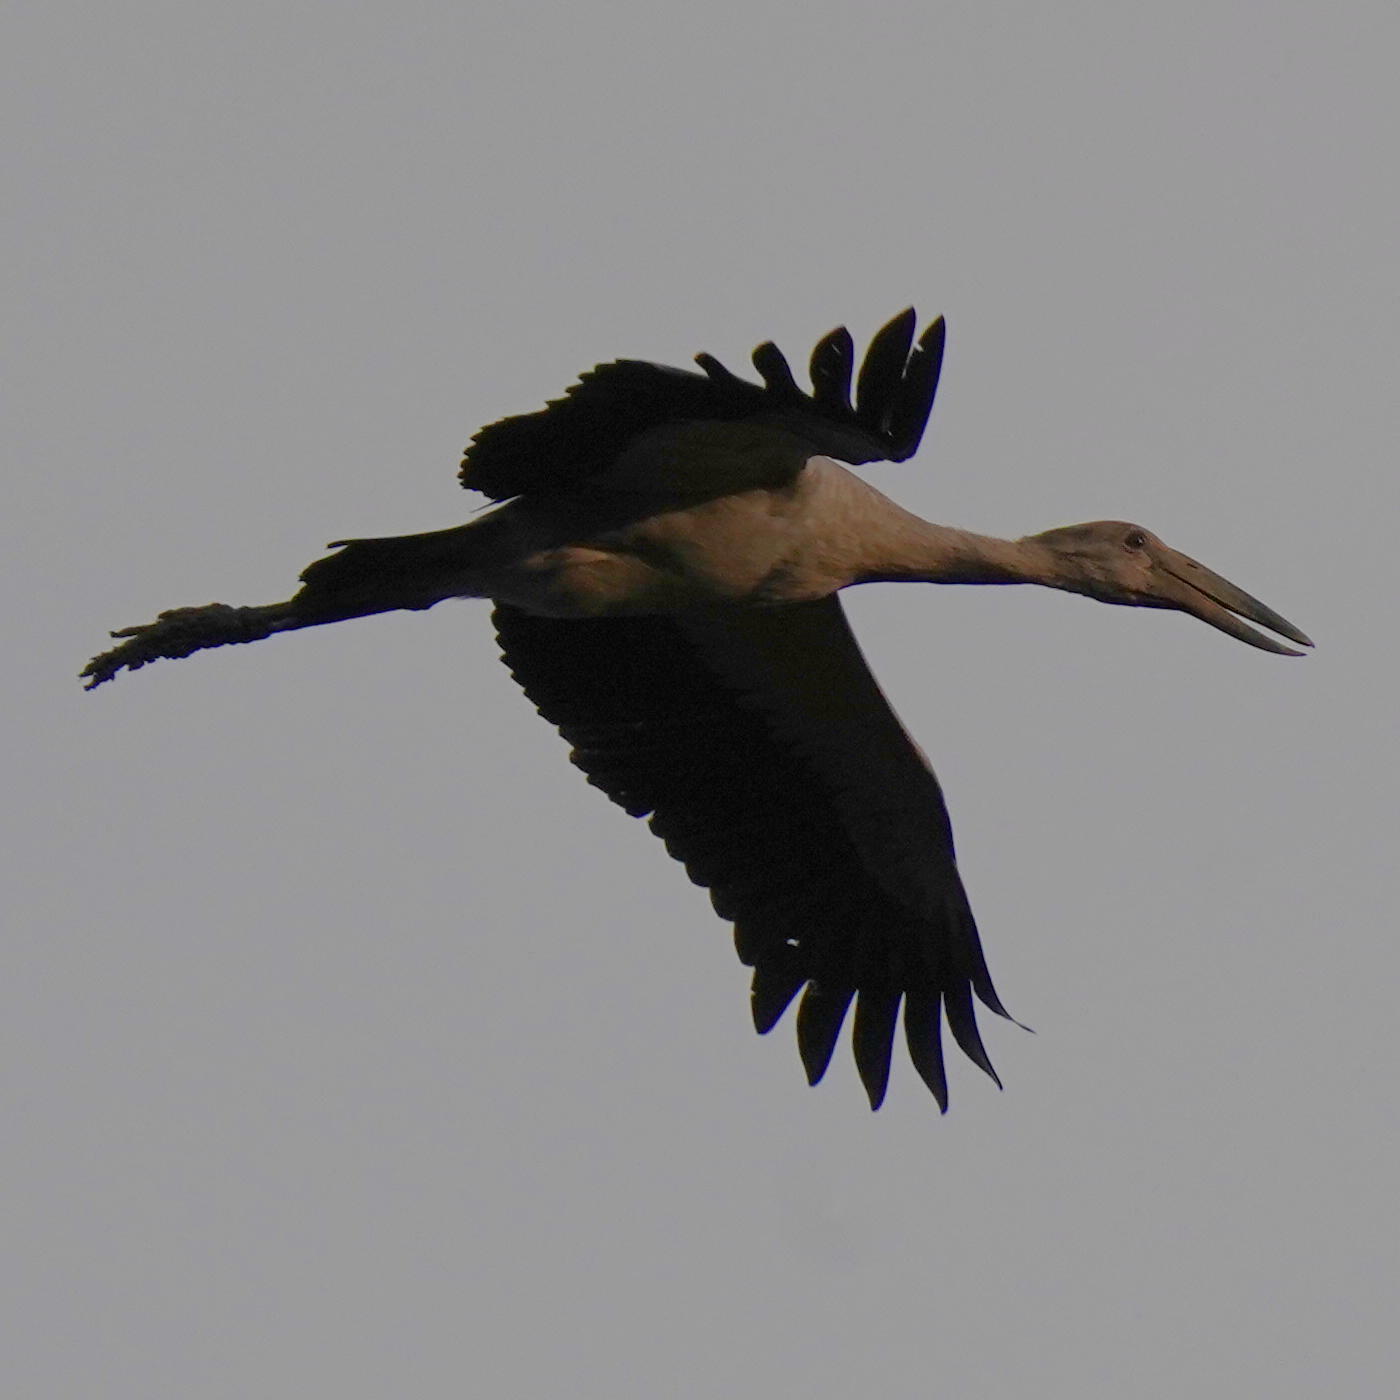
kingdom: Animalia
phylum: Chordata
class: Aves
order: Ciconiiformes
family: Ciconiidae
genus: Anastomus
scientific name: Anastomus oscitans
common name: Asian openbill
